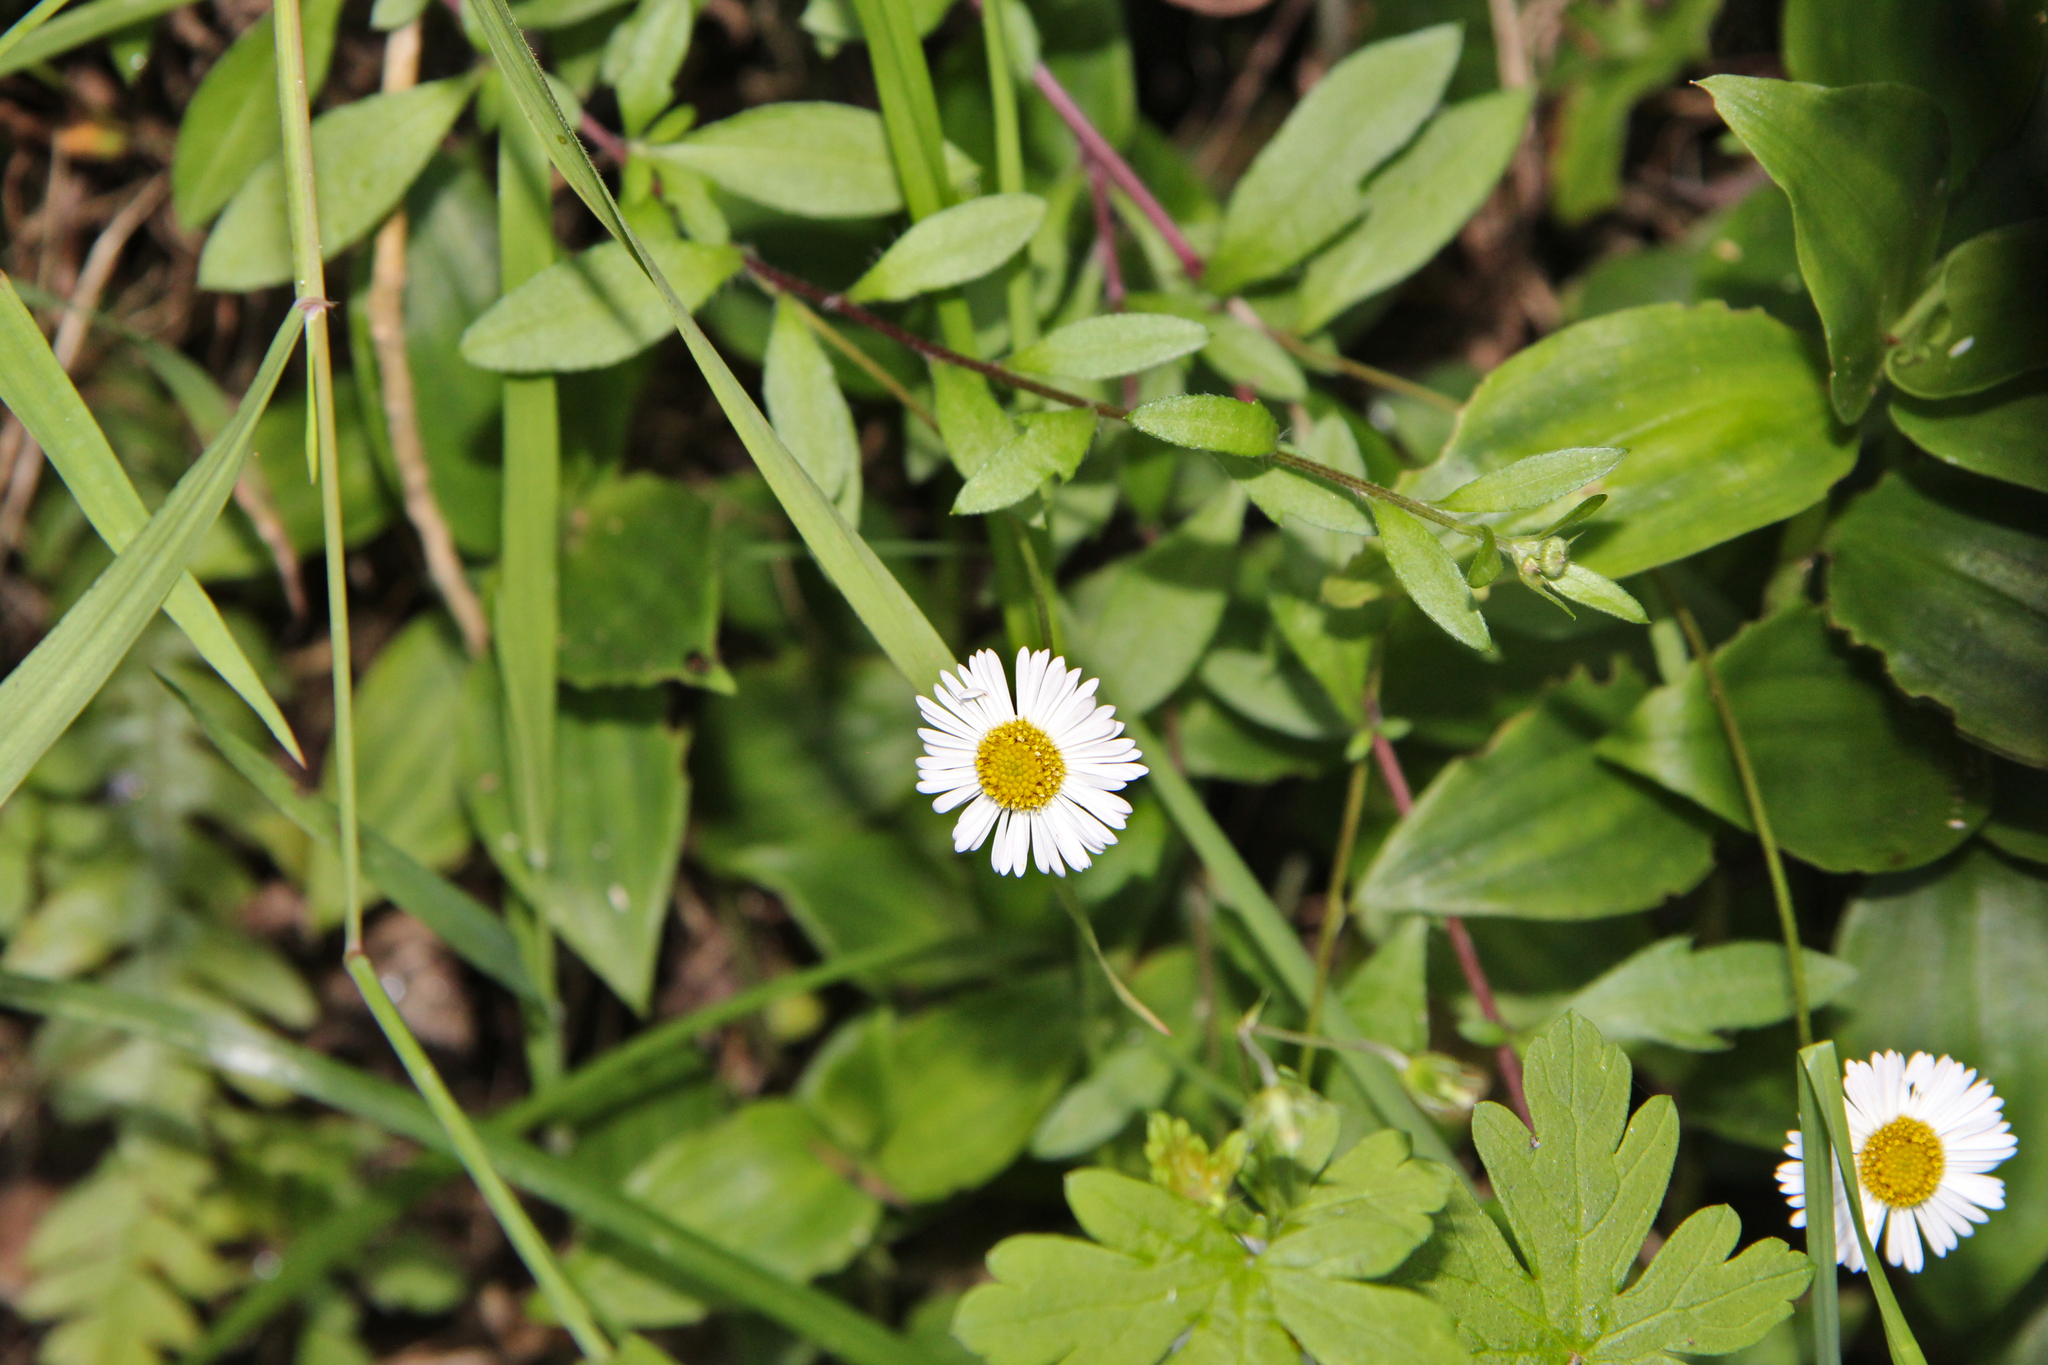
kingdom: Plantae
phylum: Tracheophyta
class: Magnoliopsida
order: Asterales
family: Asteraceae
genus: Erigeron
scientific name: Erigeron karvinskianus
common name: Mexican fleabane
